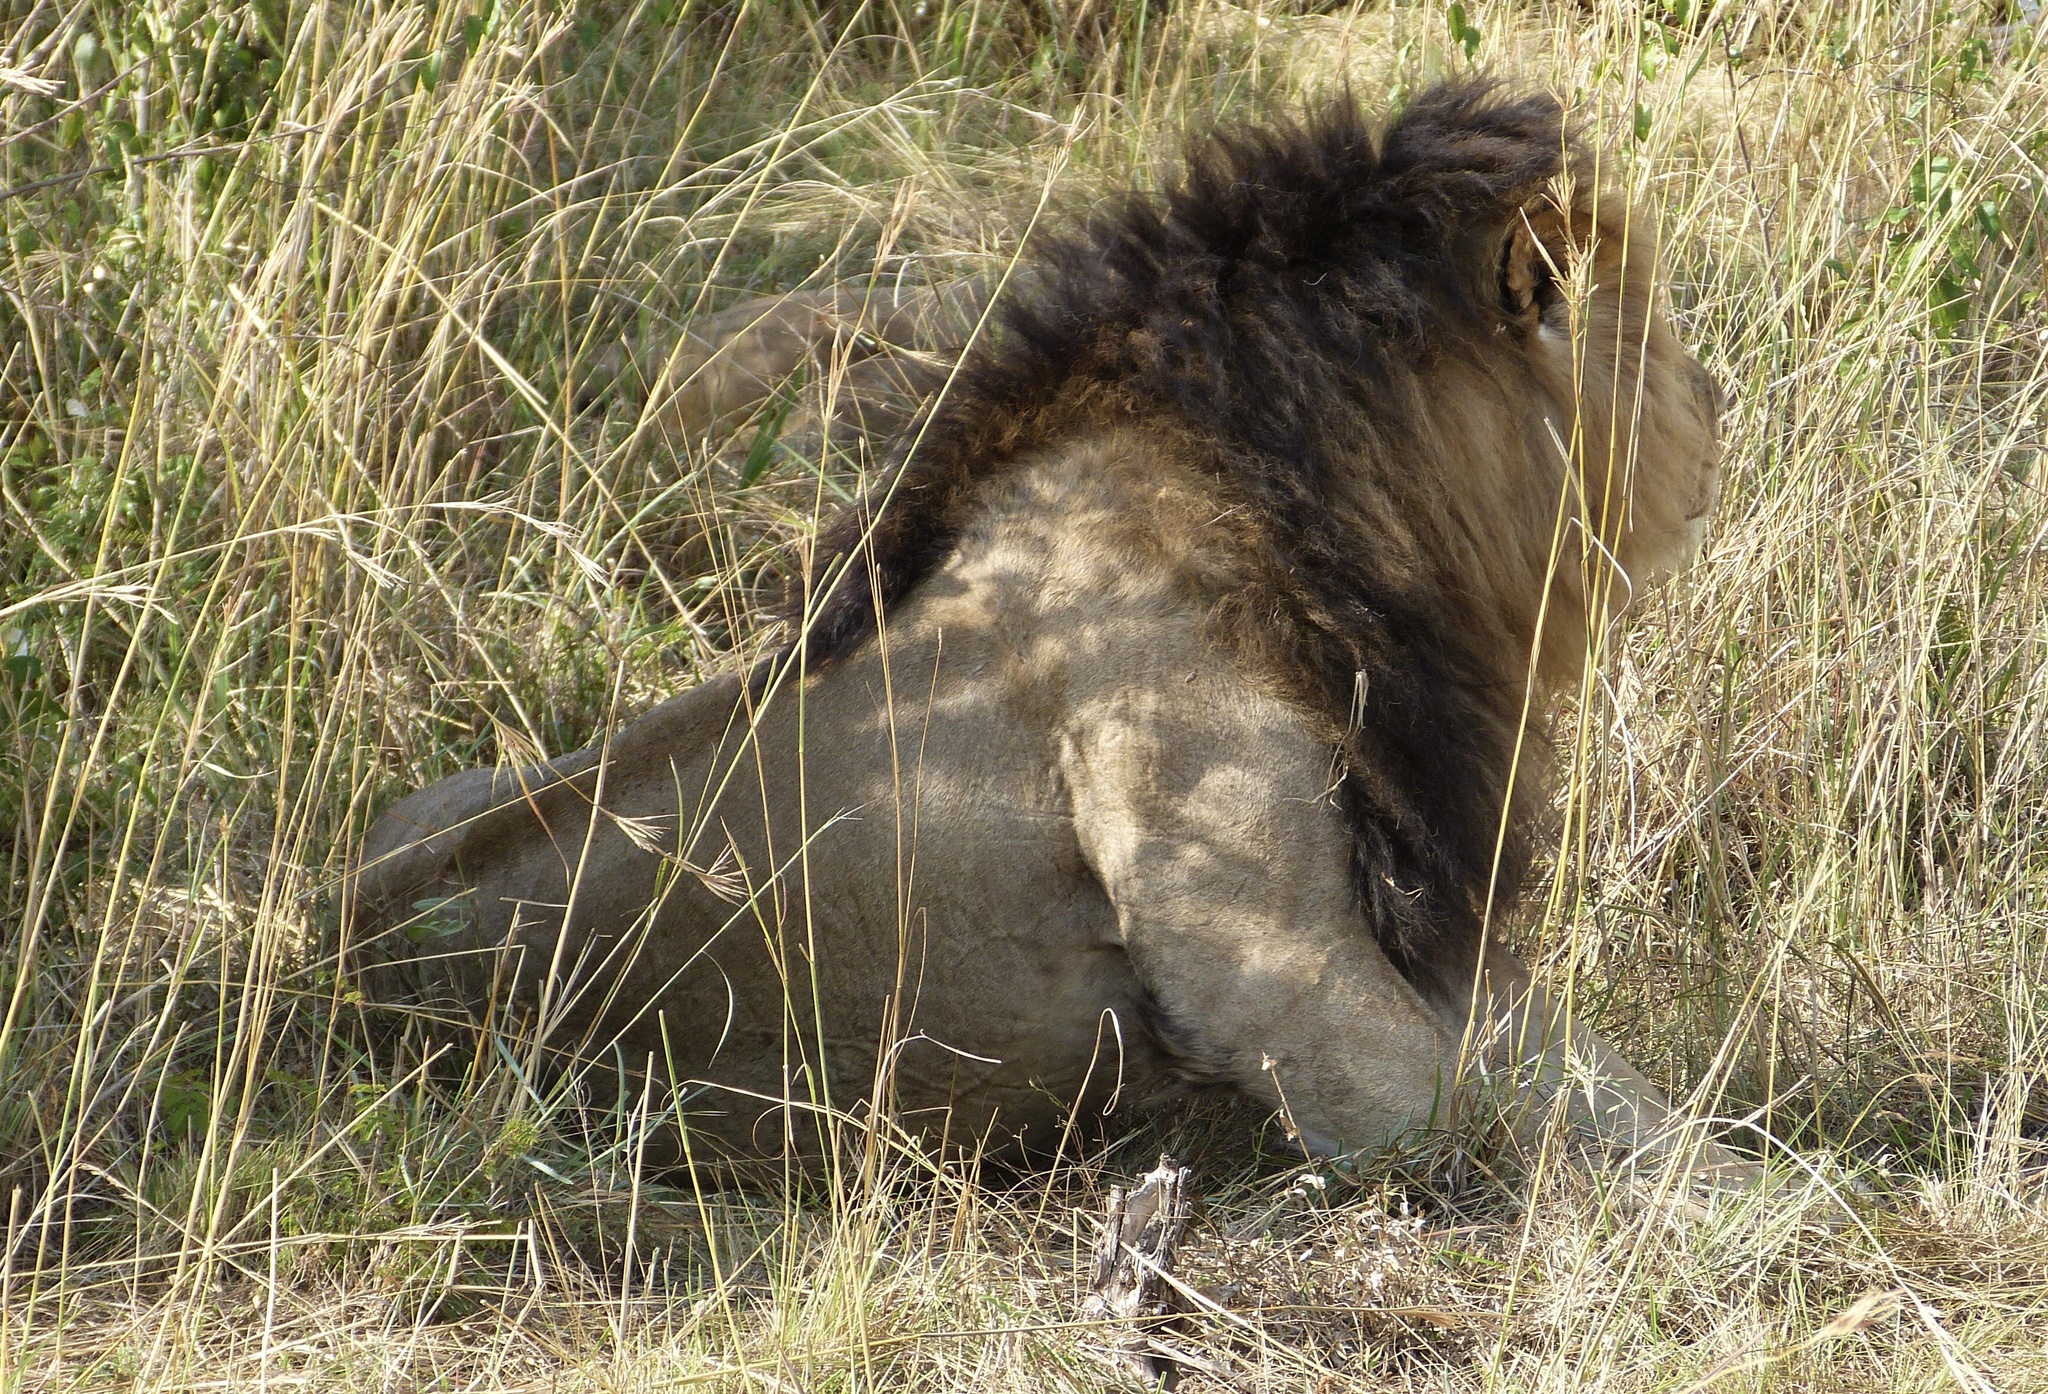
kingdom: Animalia
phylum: Chordata
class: Mammalia
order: Carnivora
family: Felidae
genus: Panthera
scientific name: Panthera leo
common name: Lion
